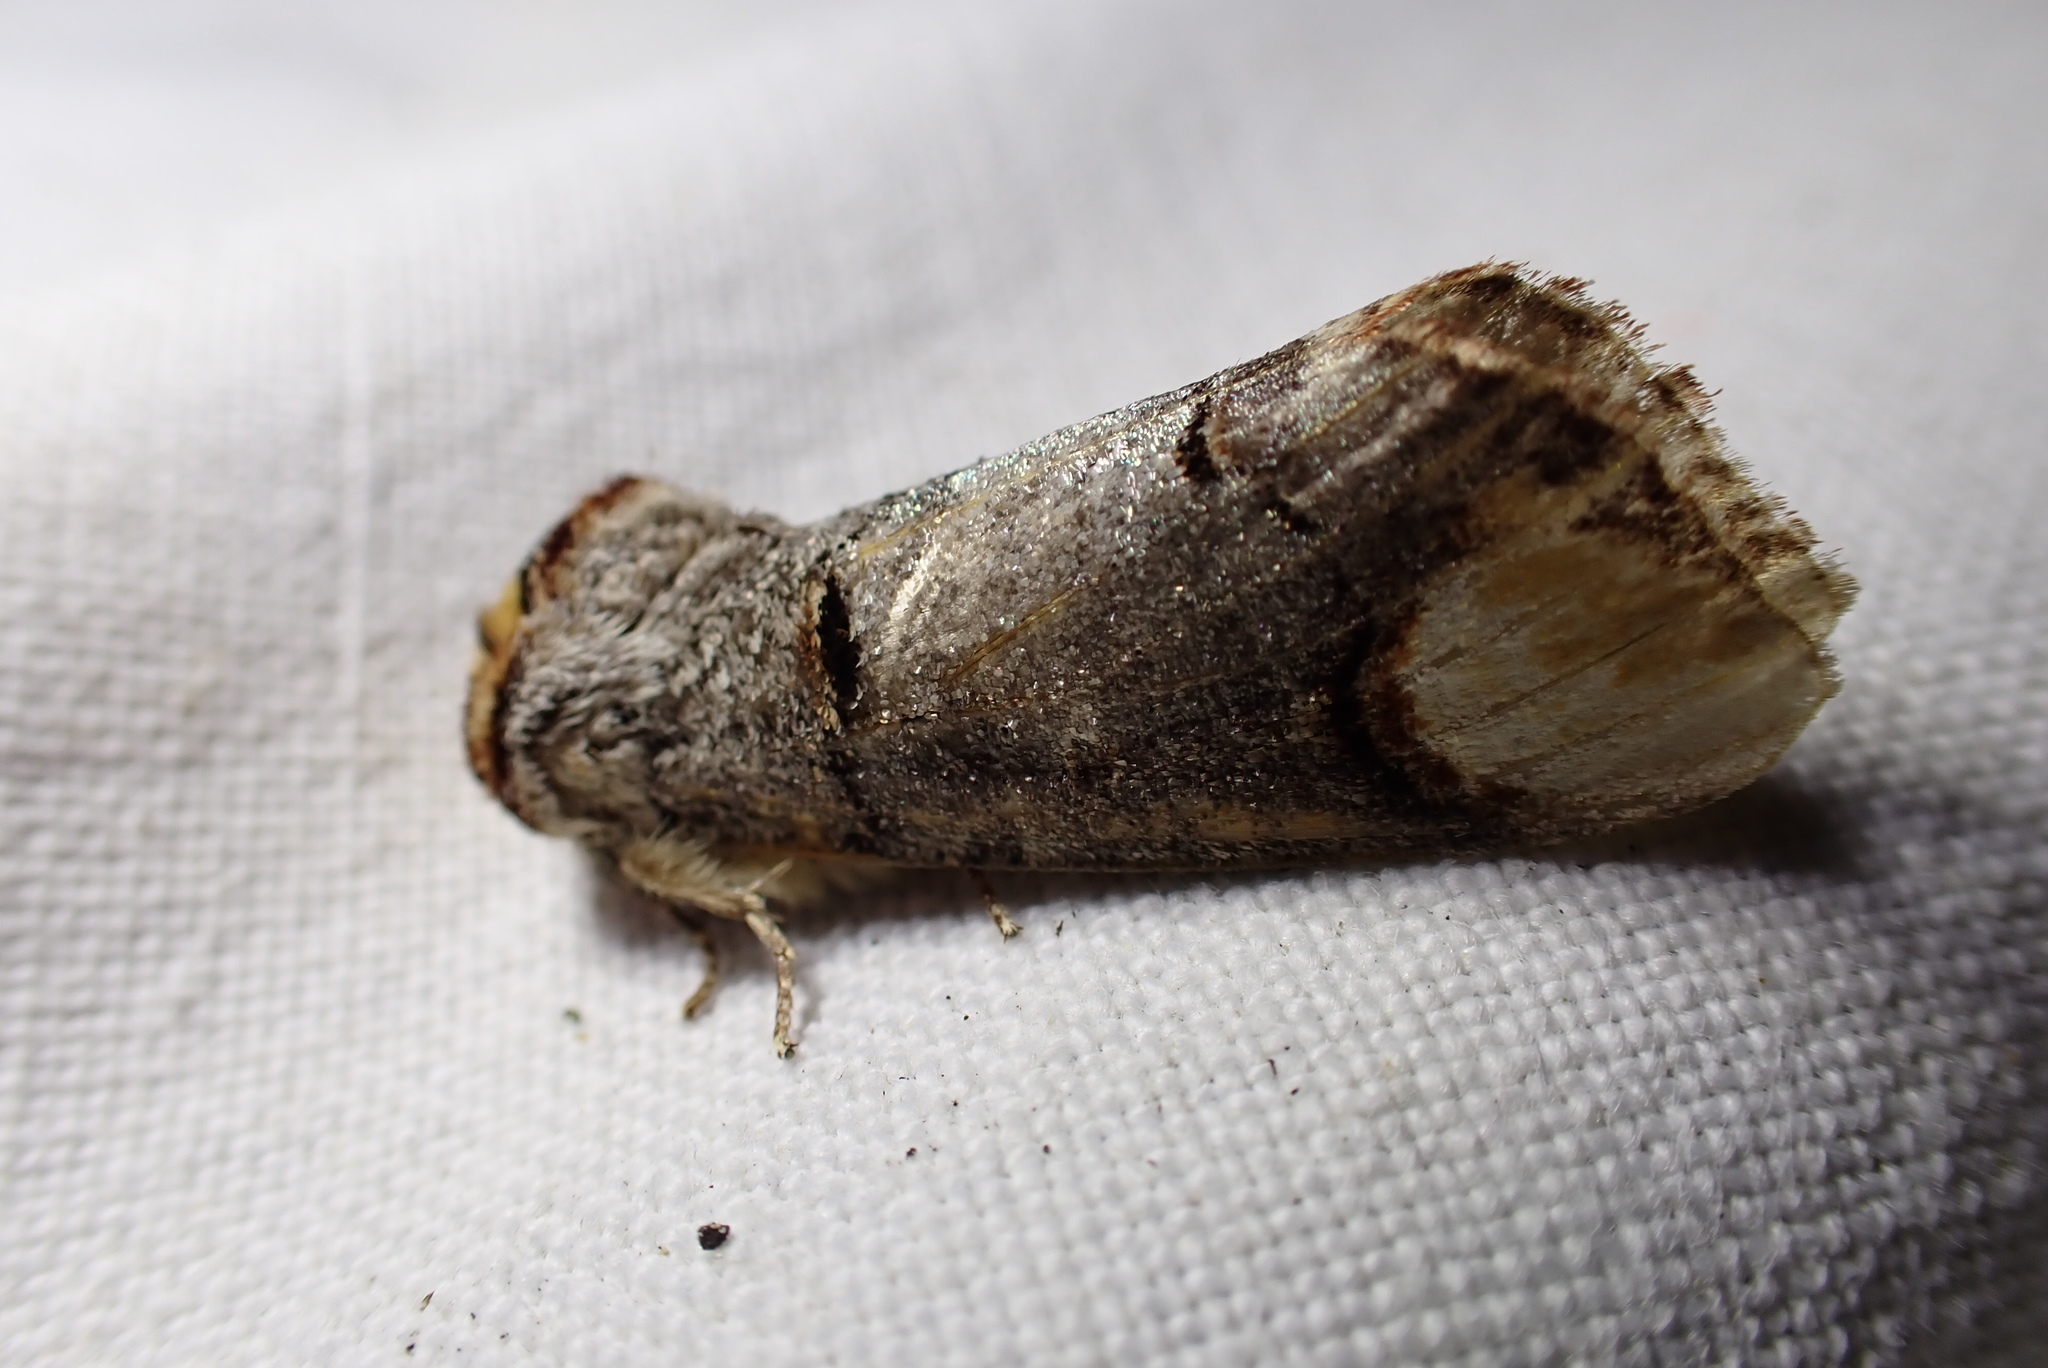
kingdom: Animalia
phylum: Arthropoda
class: Insecta
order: Lepidoptera
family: Notodontidae
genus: Phalera
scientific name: Phalera bucephala
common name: Buff-tip
